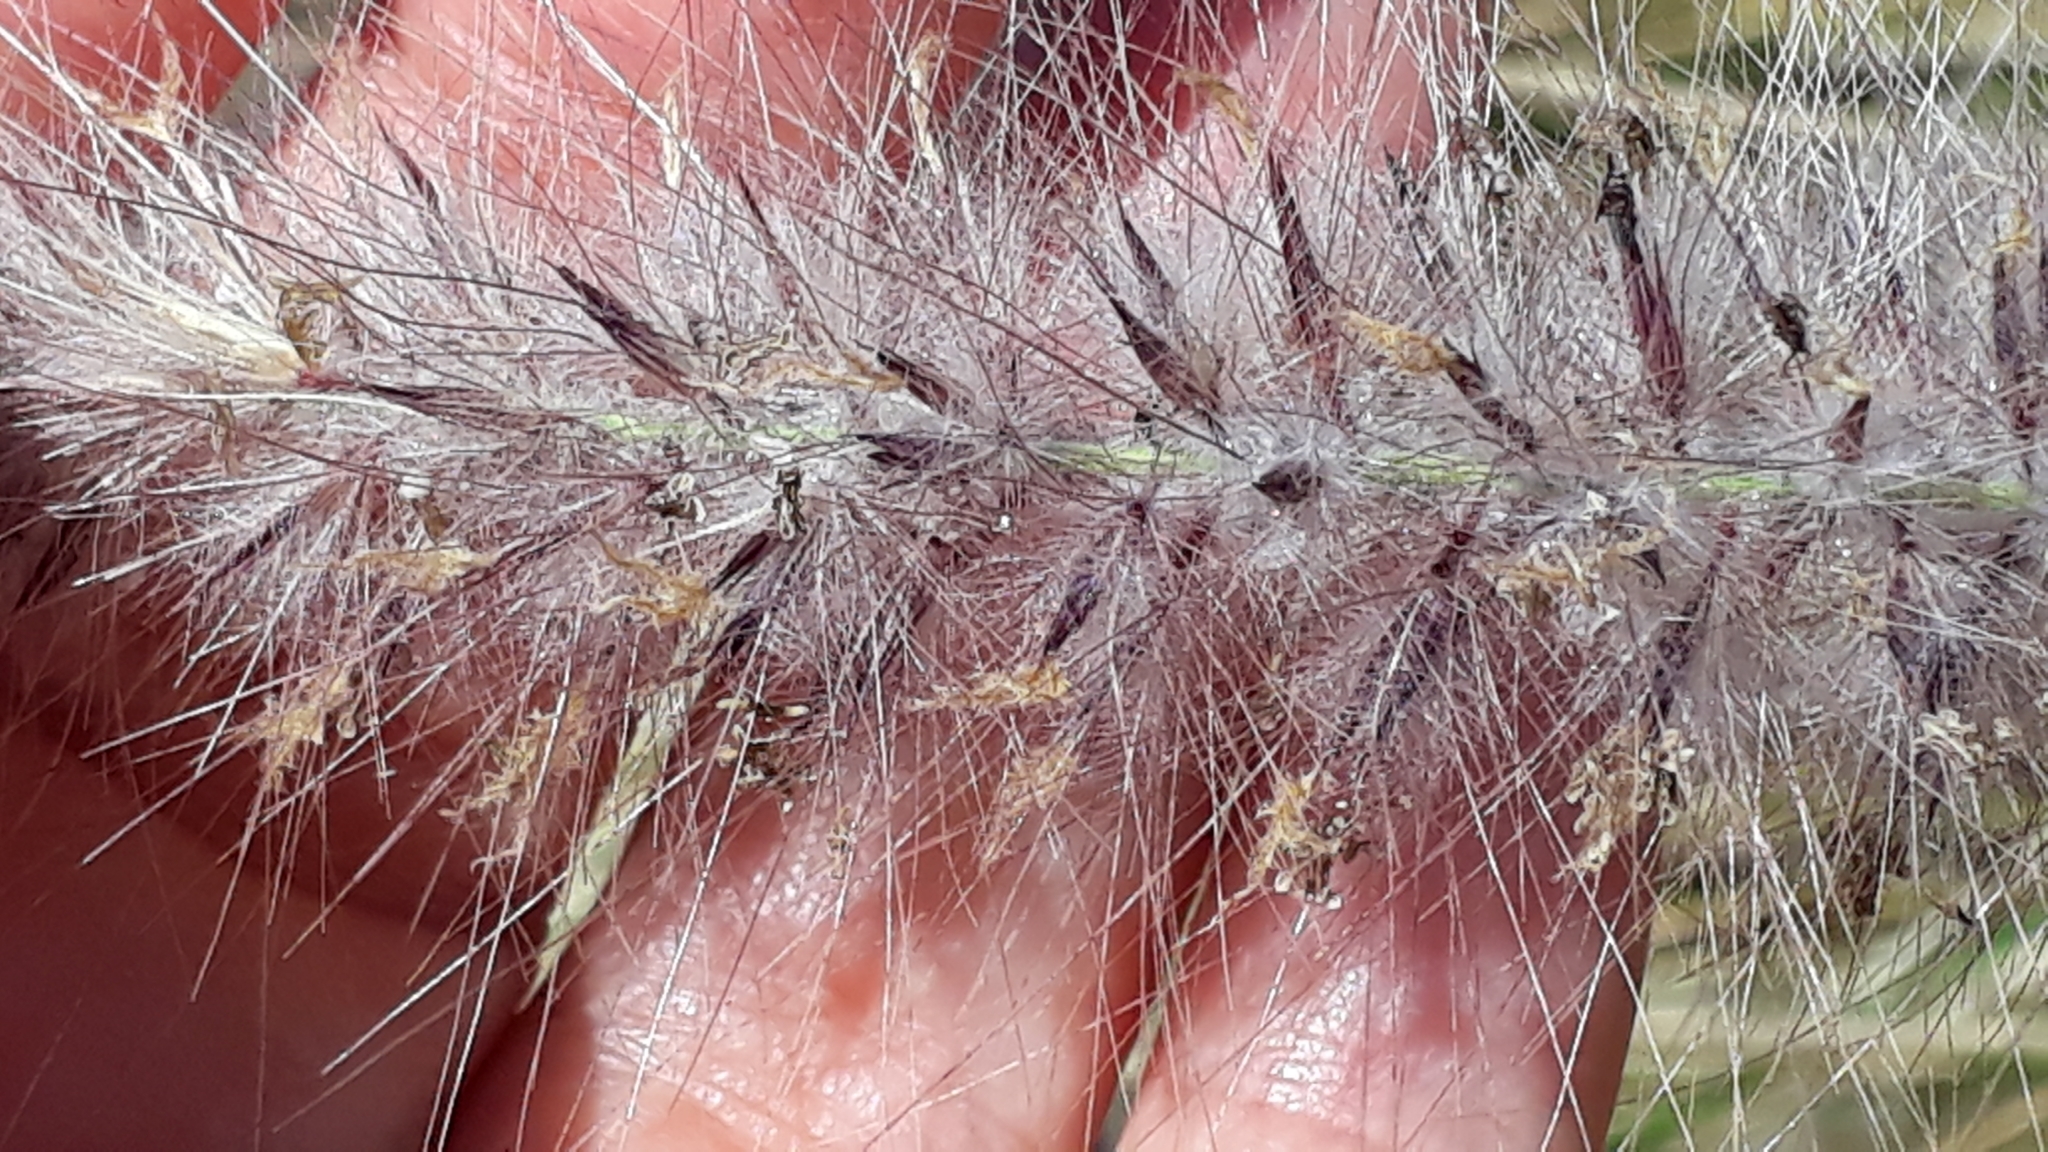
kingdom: Plantae
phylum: Tracheophyta
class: Liliopsida
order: Poales
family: Poaceae
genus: Cenchrus
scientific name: Cenchrus setaceus
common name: Crimson fountaingrass
